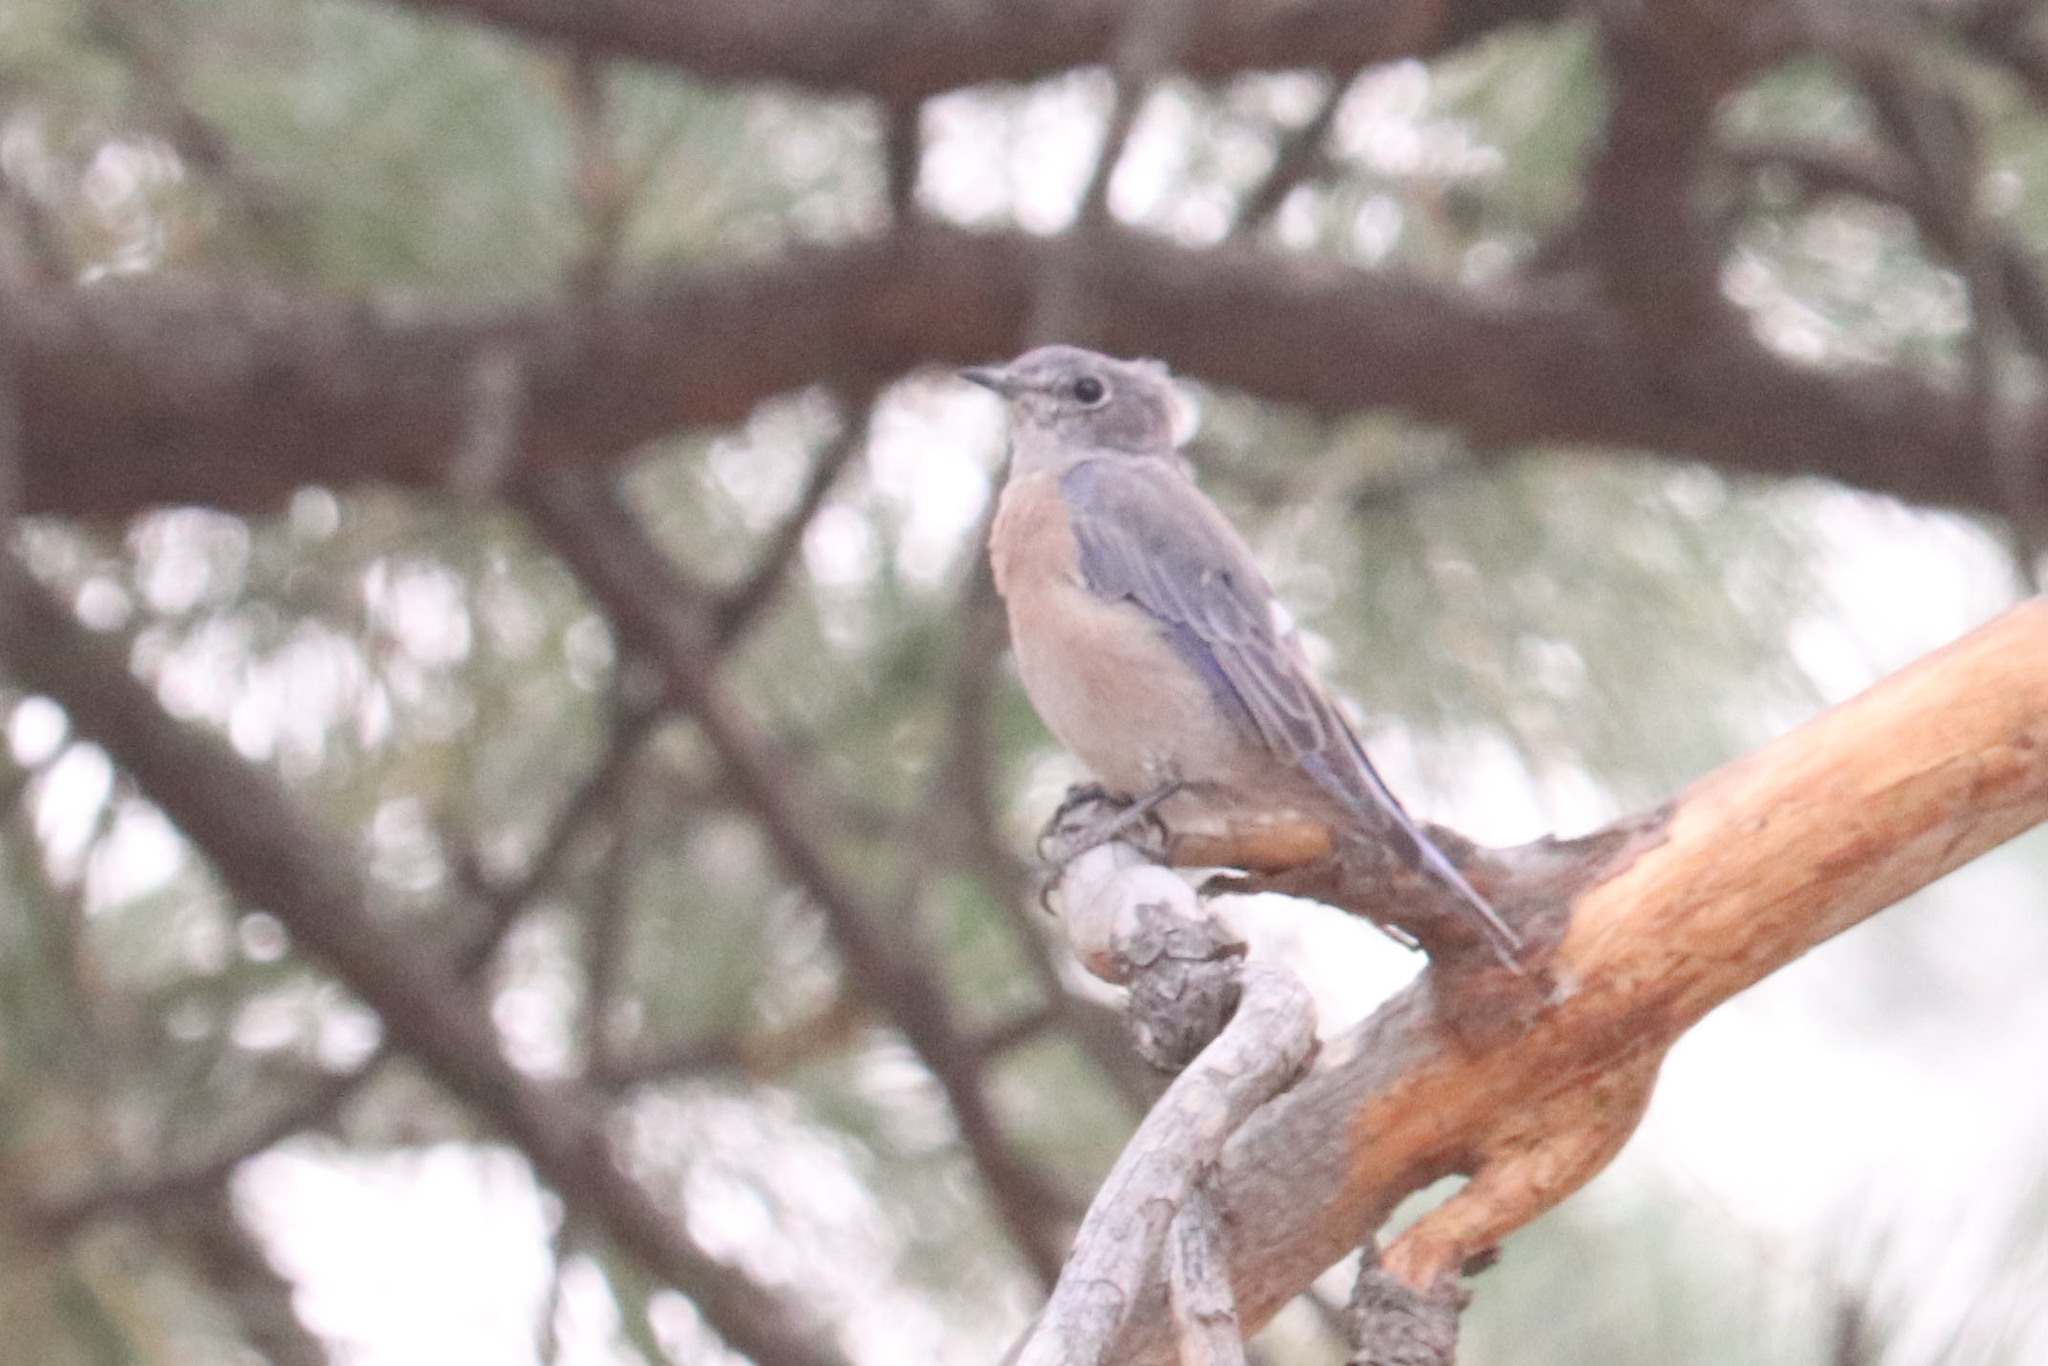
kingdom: Animalia
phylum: Chordata
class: Aves
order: Passeriformes
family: Turdidae
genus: Sialia
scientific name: Sialia mexicana
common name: Western bluebird
